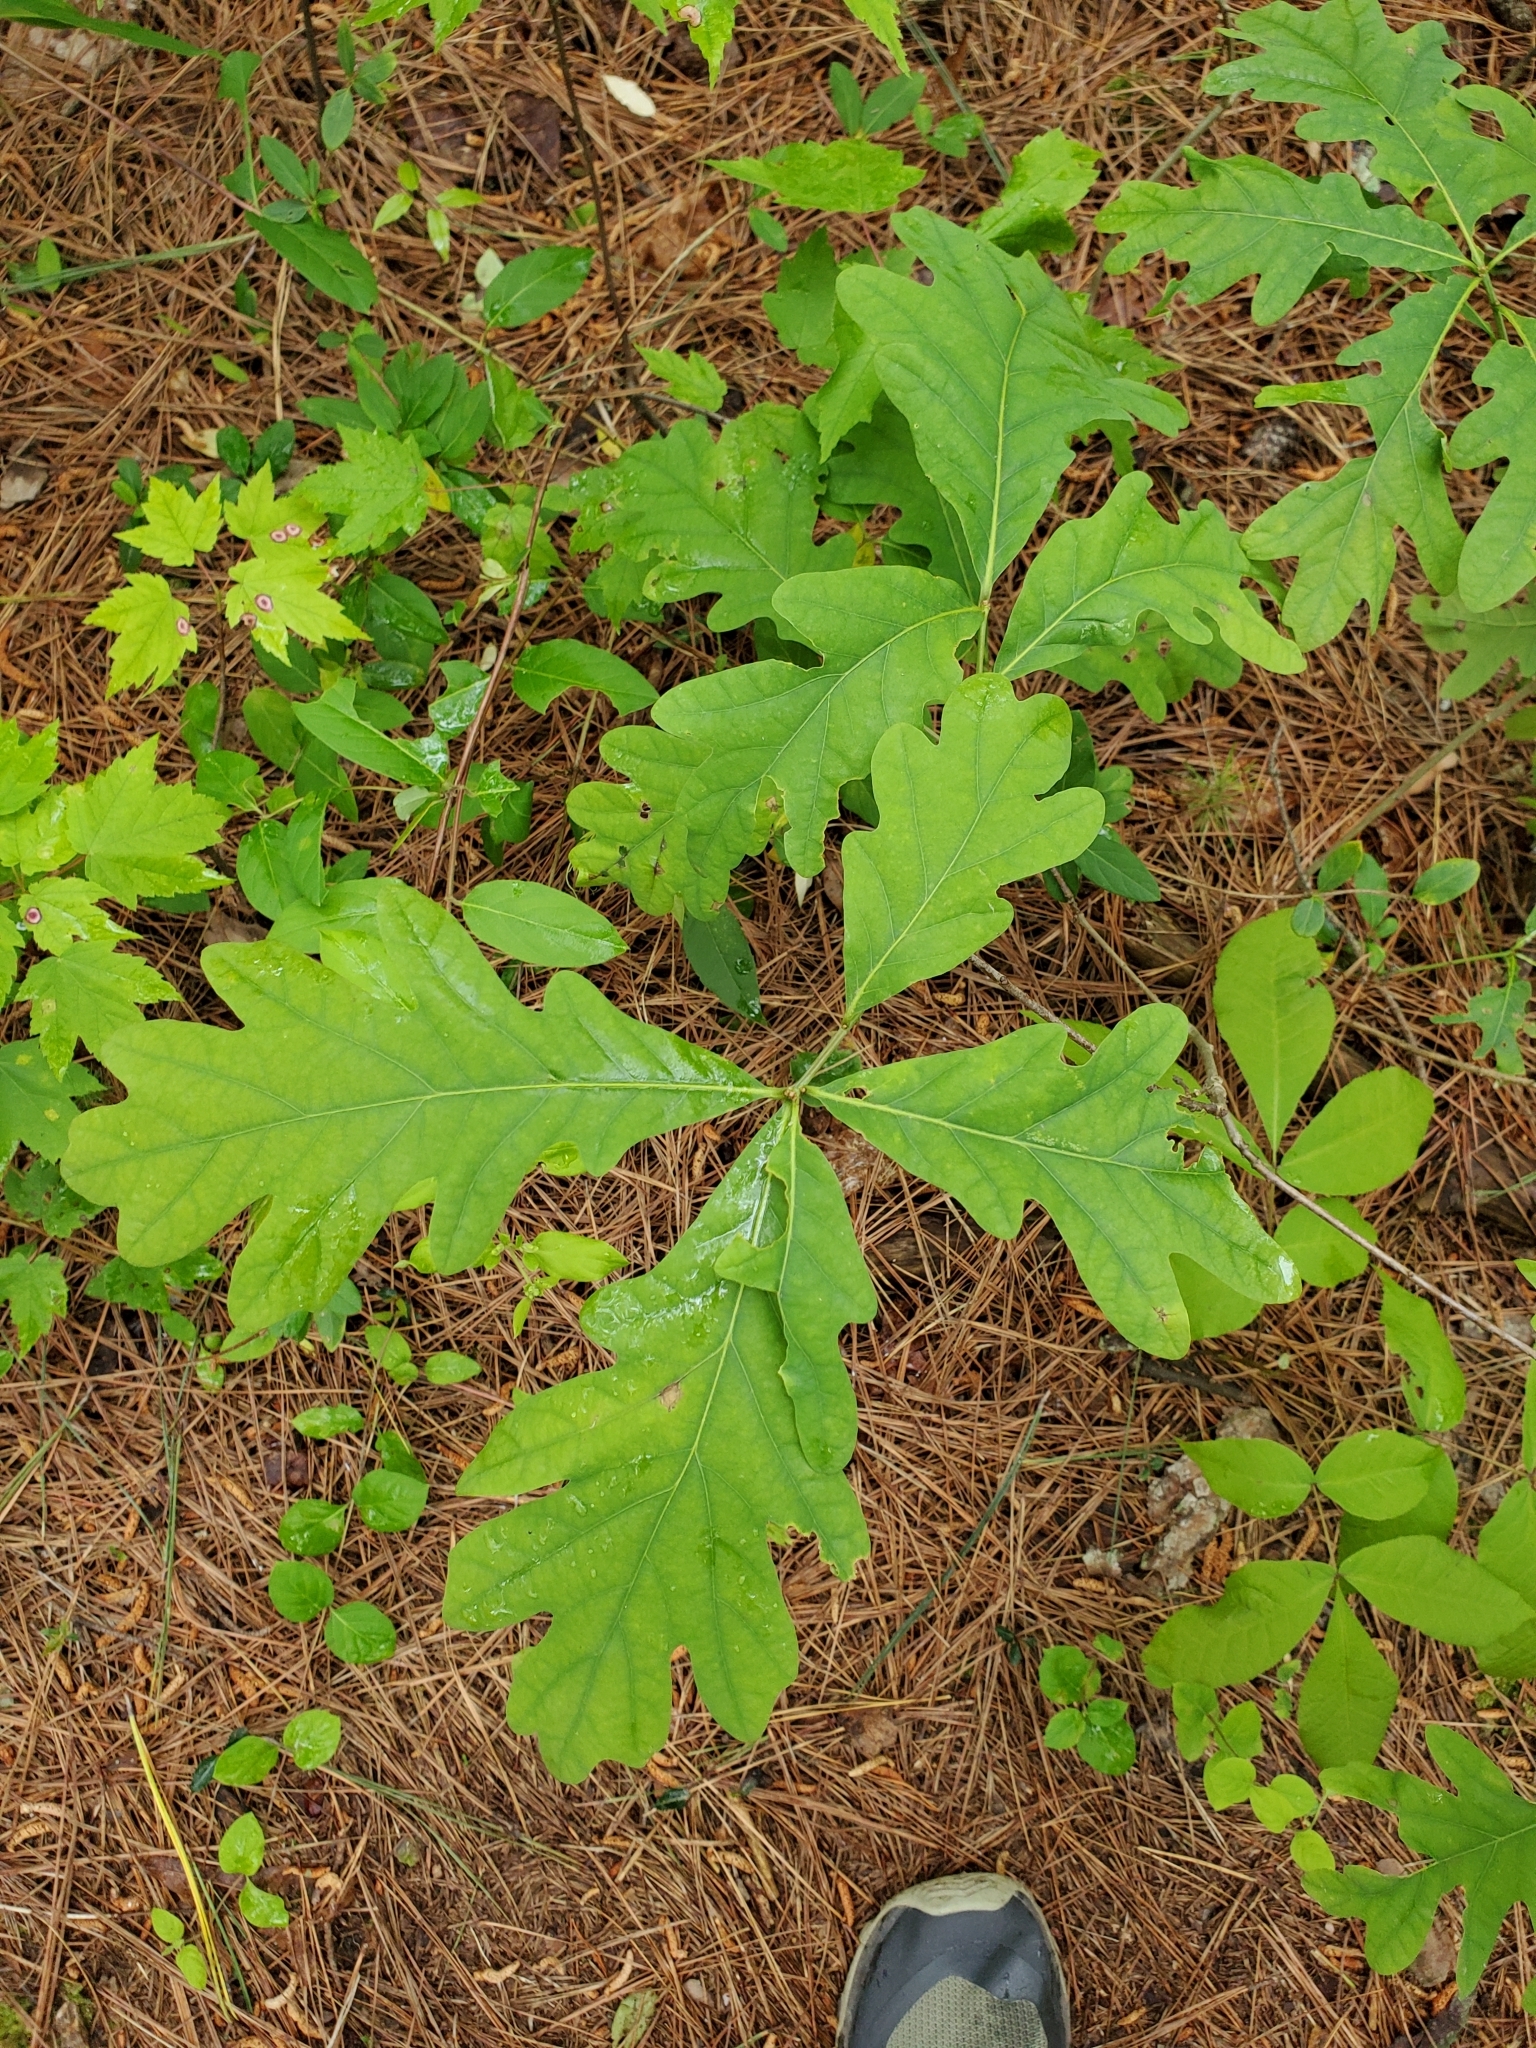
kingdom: Plantae
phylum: Tracheophyta
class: Magnoliopsida
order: Fagales
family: Fagaceae
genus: Quercus
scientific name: Quercus alba
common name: White oak
